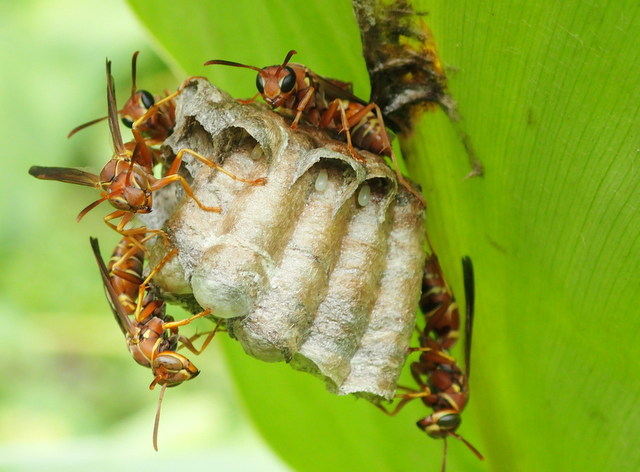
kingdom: Animalia
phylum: Arthropoda
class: Insecta
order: Hymenoptera
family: Eumenidae
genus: Polistes
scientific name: Polistes dorsalis
